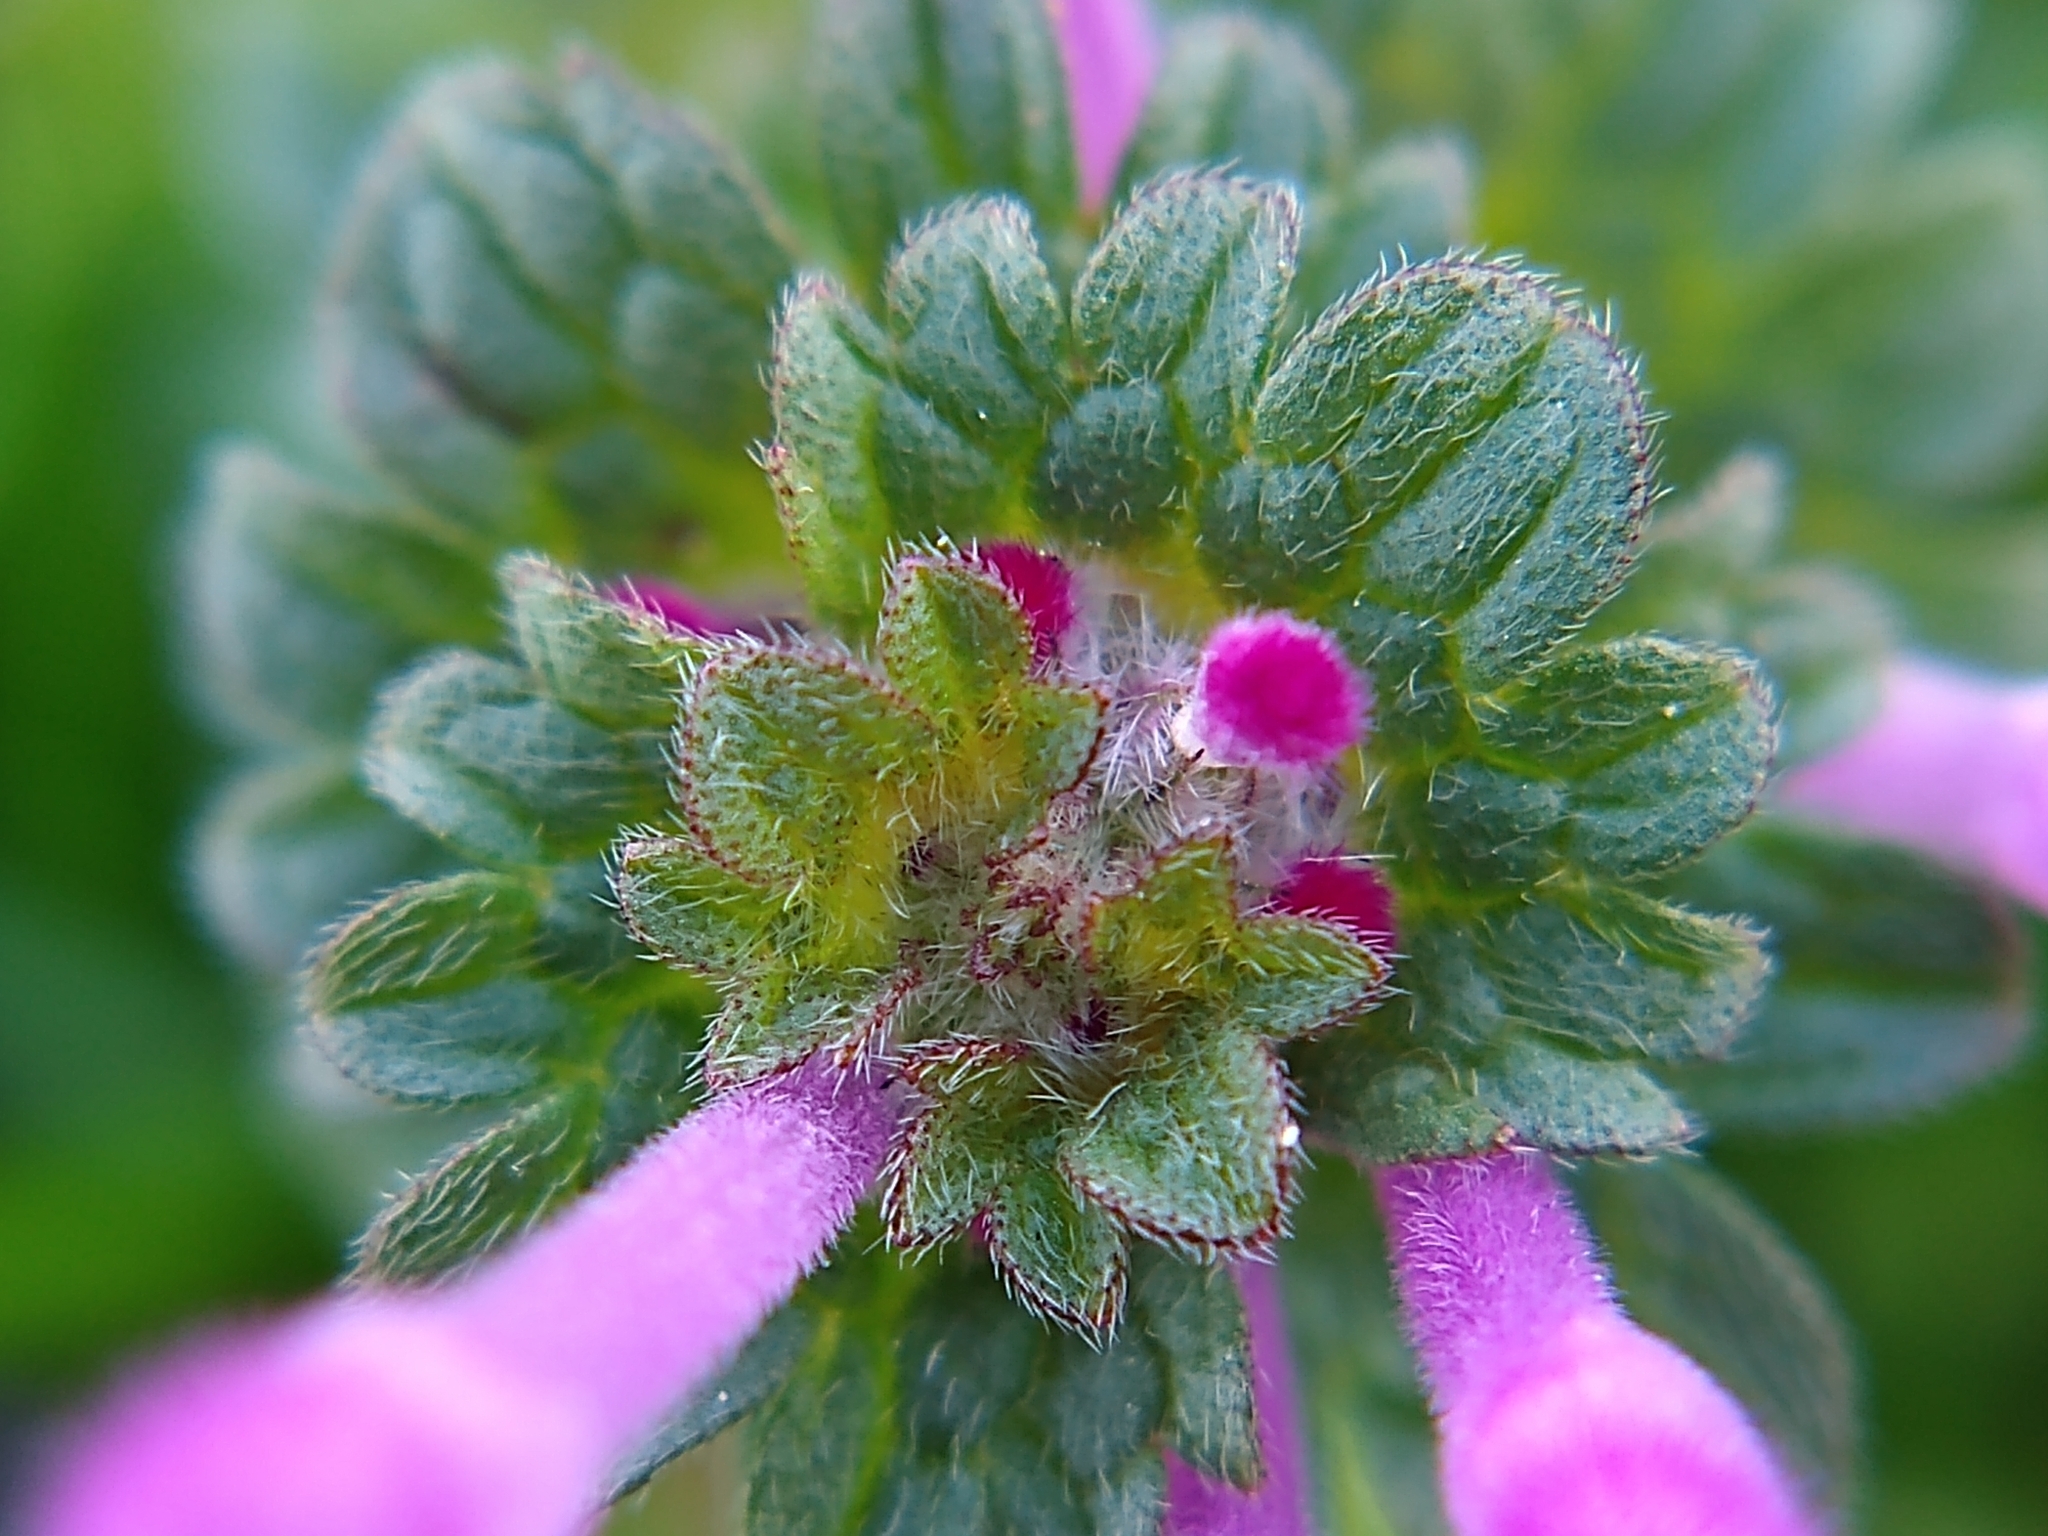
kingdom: Plantae
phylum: Tracheophyta
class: Magnoliopsida
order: Lamiales
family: Lamiaceae
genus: Lamium
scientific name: Lamium amplexicaule
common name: Henbit dead-nettle
